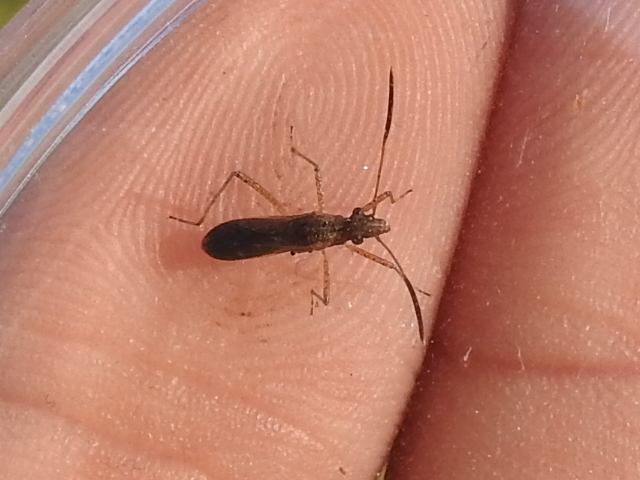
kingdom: Animalia
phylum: Arthropoda
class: Insecta
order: Hemiptera
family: Alydidae
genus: Esperanza
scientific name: Esperanza texana
